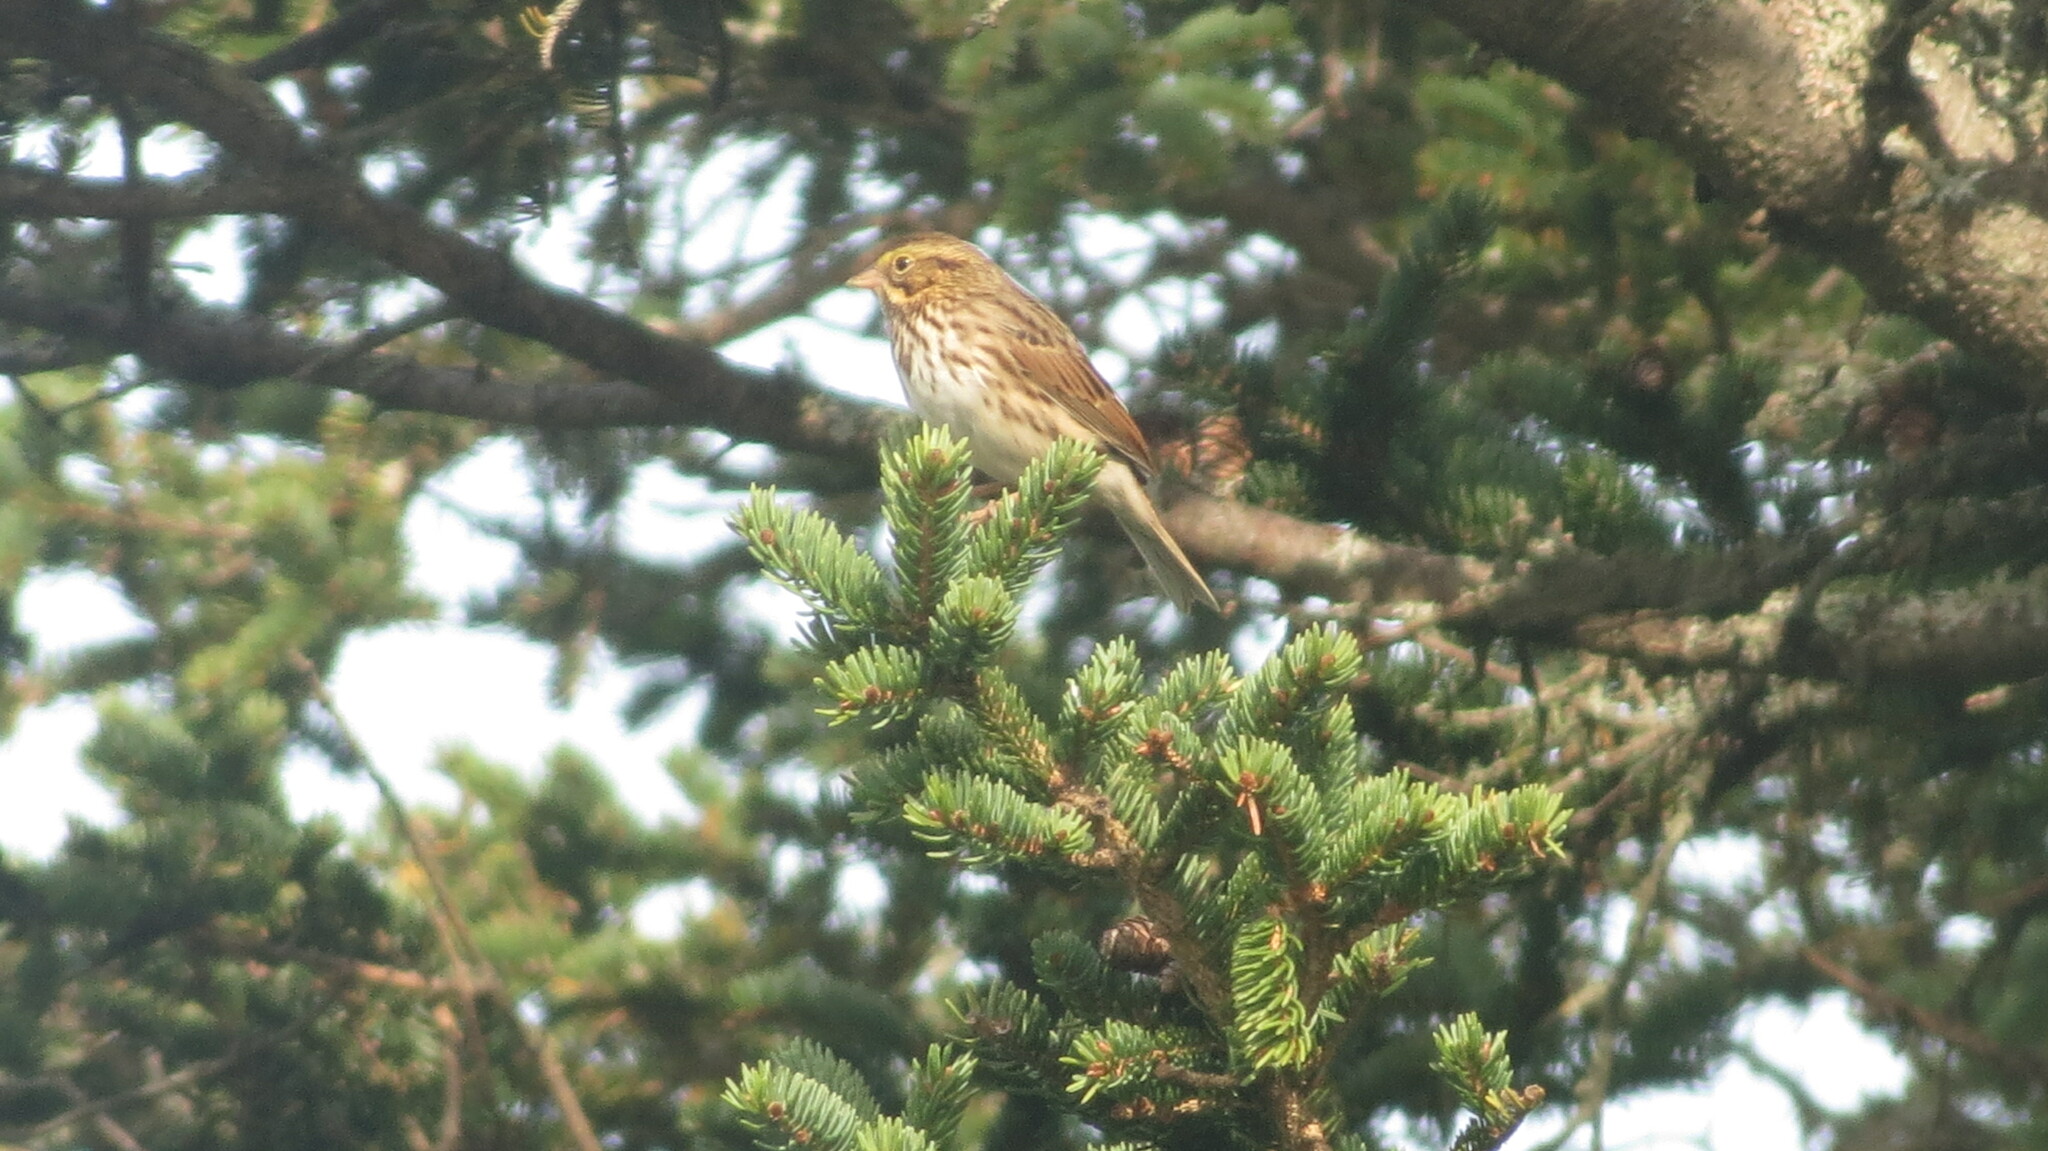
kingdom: Animalia
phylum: Chordata
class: Aves
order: Passeriformes
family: Passerellidae
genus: Passerculus
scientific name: Passerculus sandwichensis
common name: Savannah sparrow
